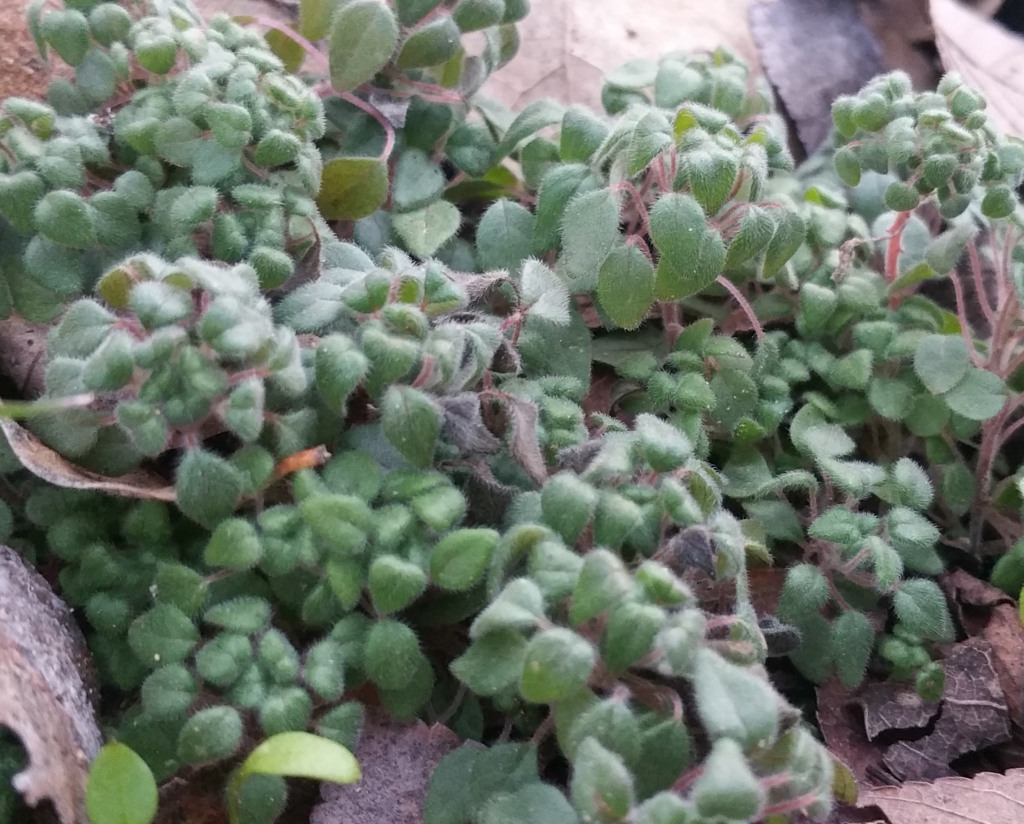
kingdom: Plantae
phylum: Tracheophyta
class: Magnoliopsida
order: Rosales
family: Urticaceae
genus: Parietaria
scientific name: Parietaria pensylvanica
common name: Pennsylvania pellitory
